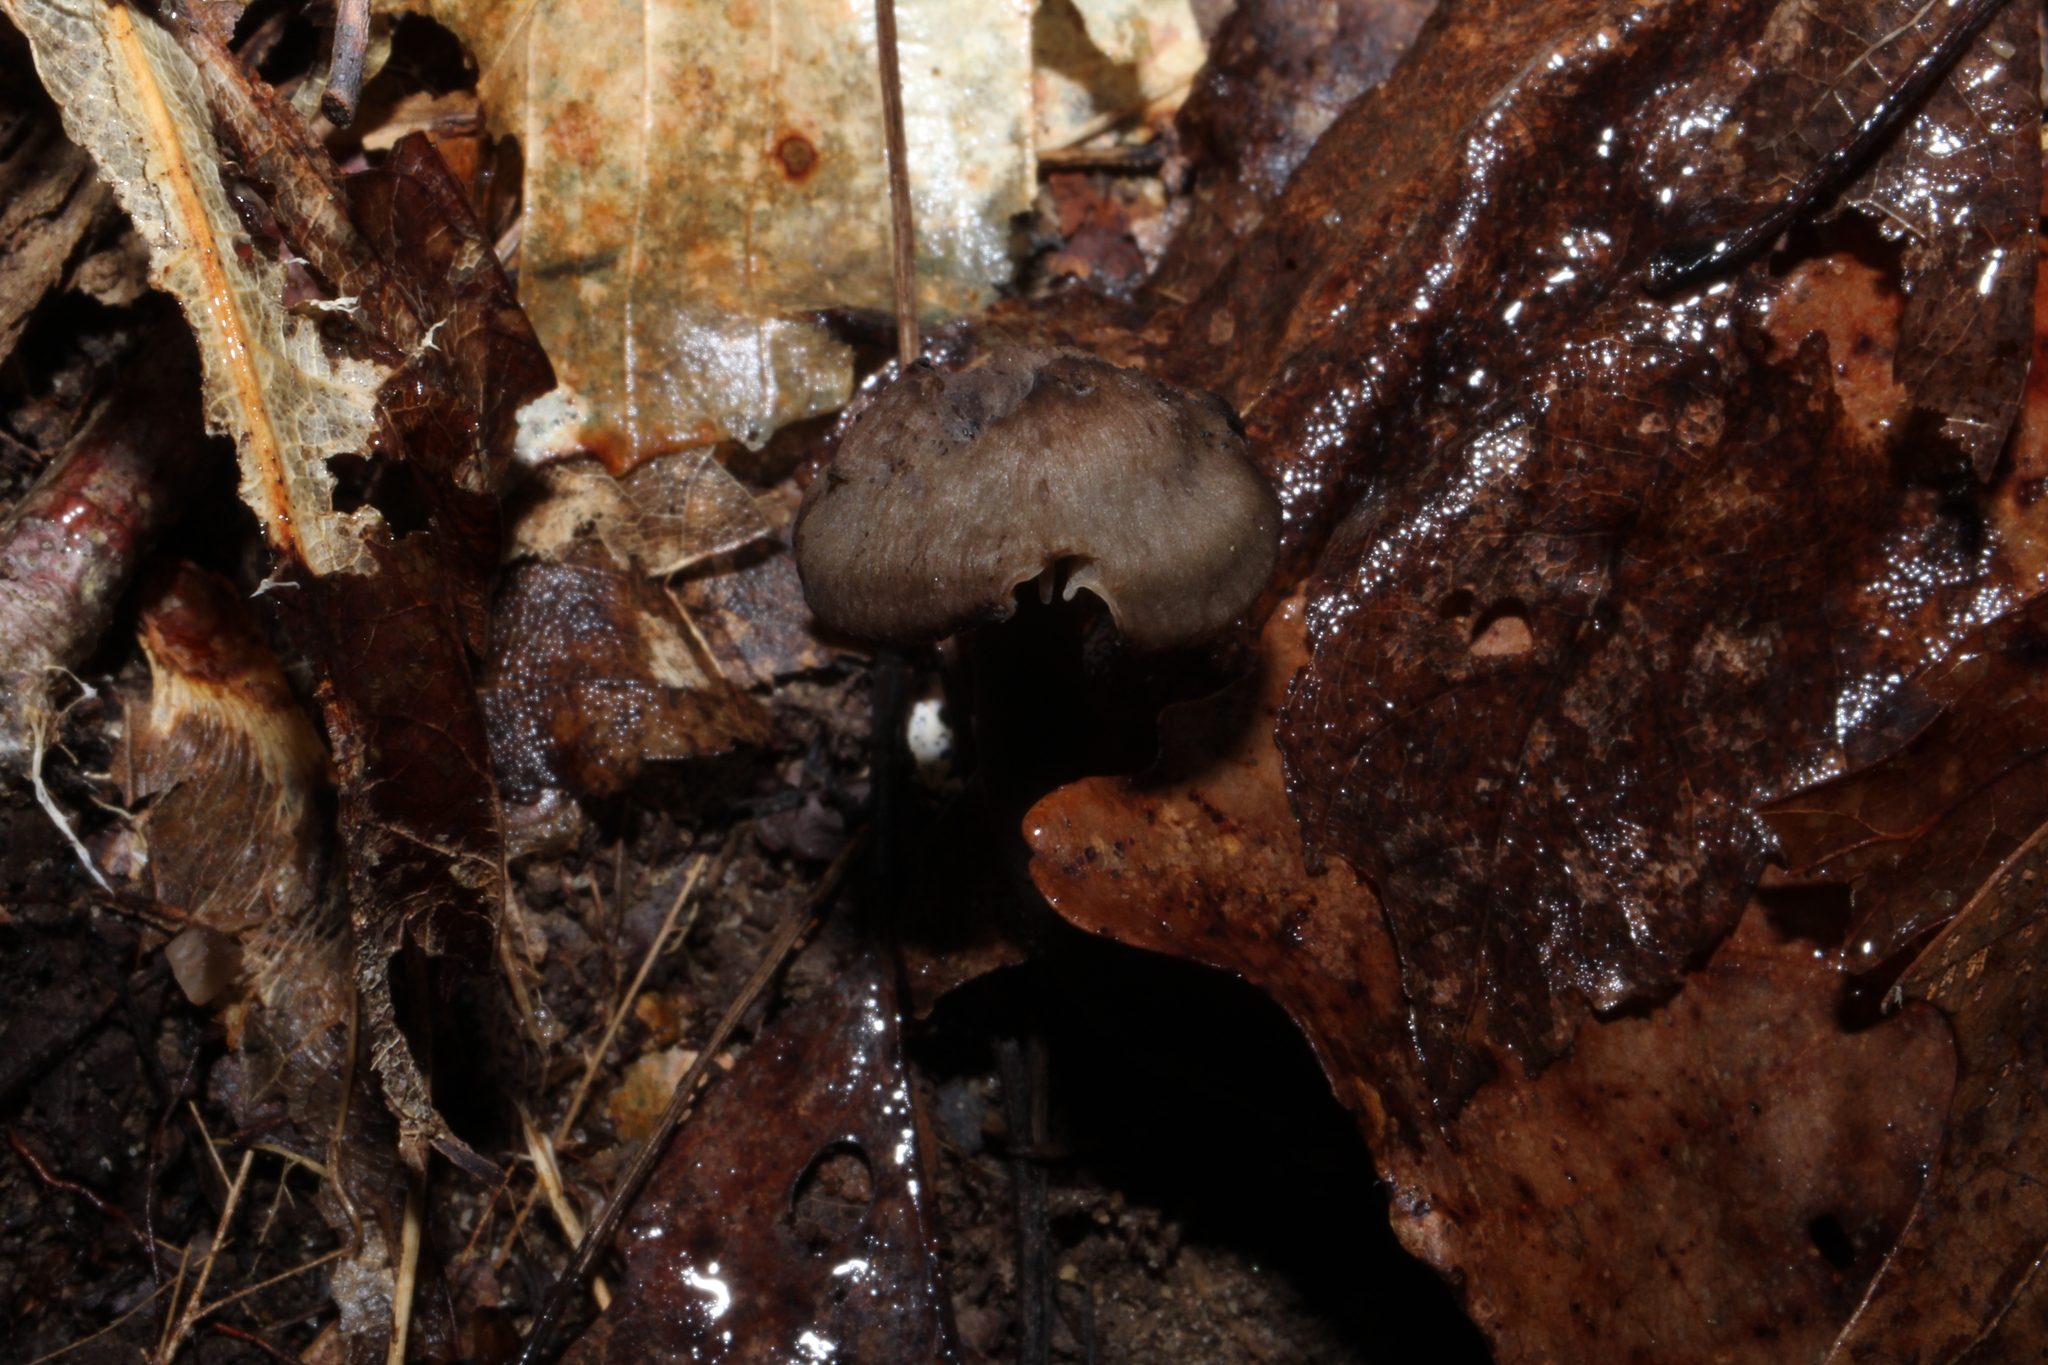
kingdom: Fungi
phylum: Basidiomycota
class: Agaricomycetes
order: Agaricales
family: Hygrophoraceae
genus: Neohygrocybe
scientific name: Neohygrocybe subovina
